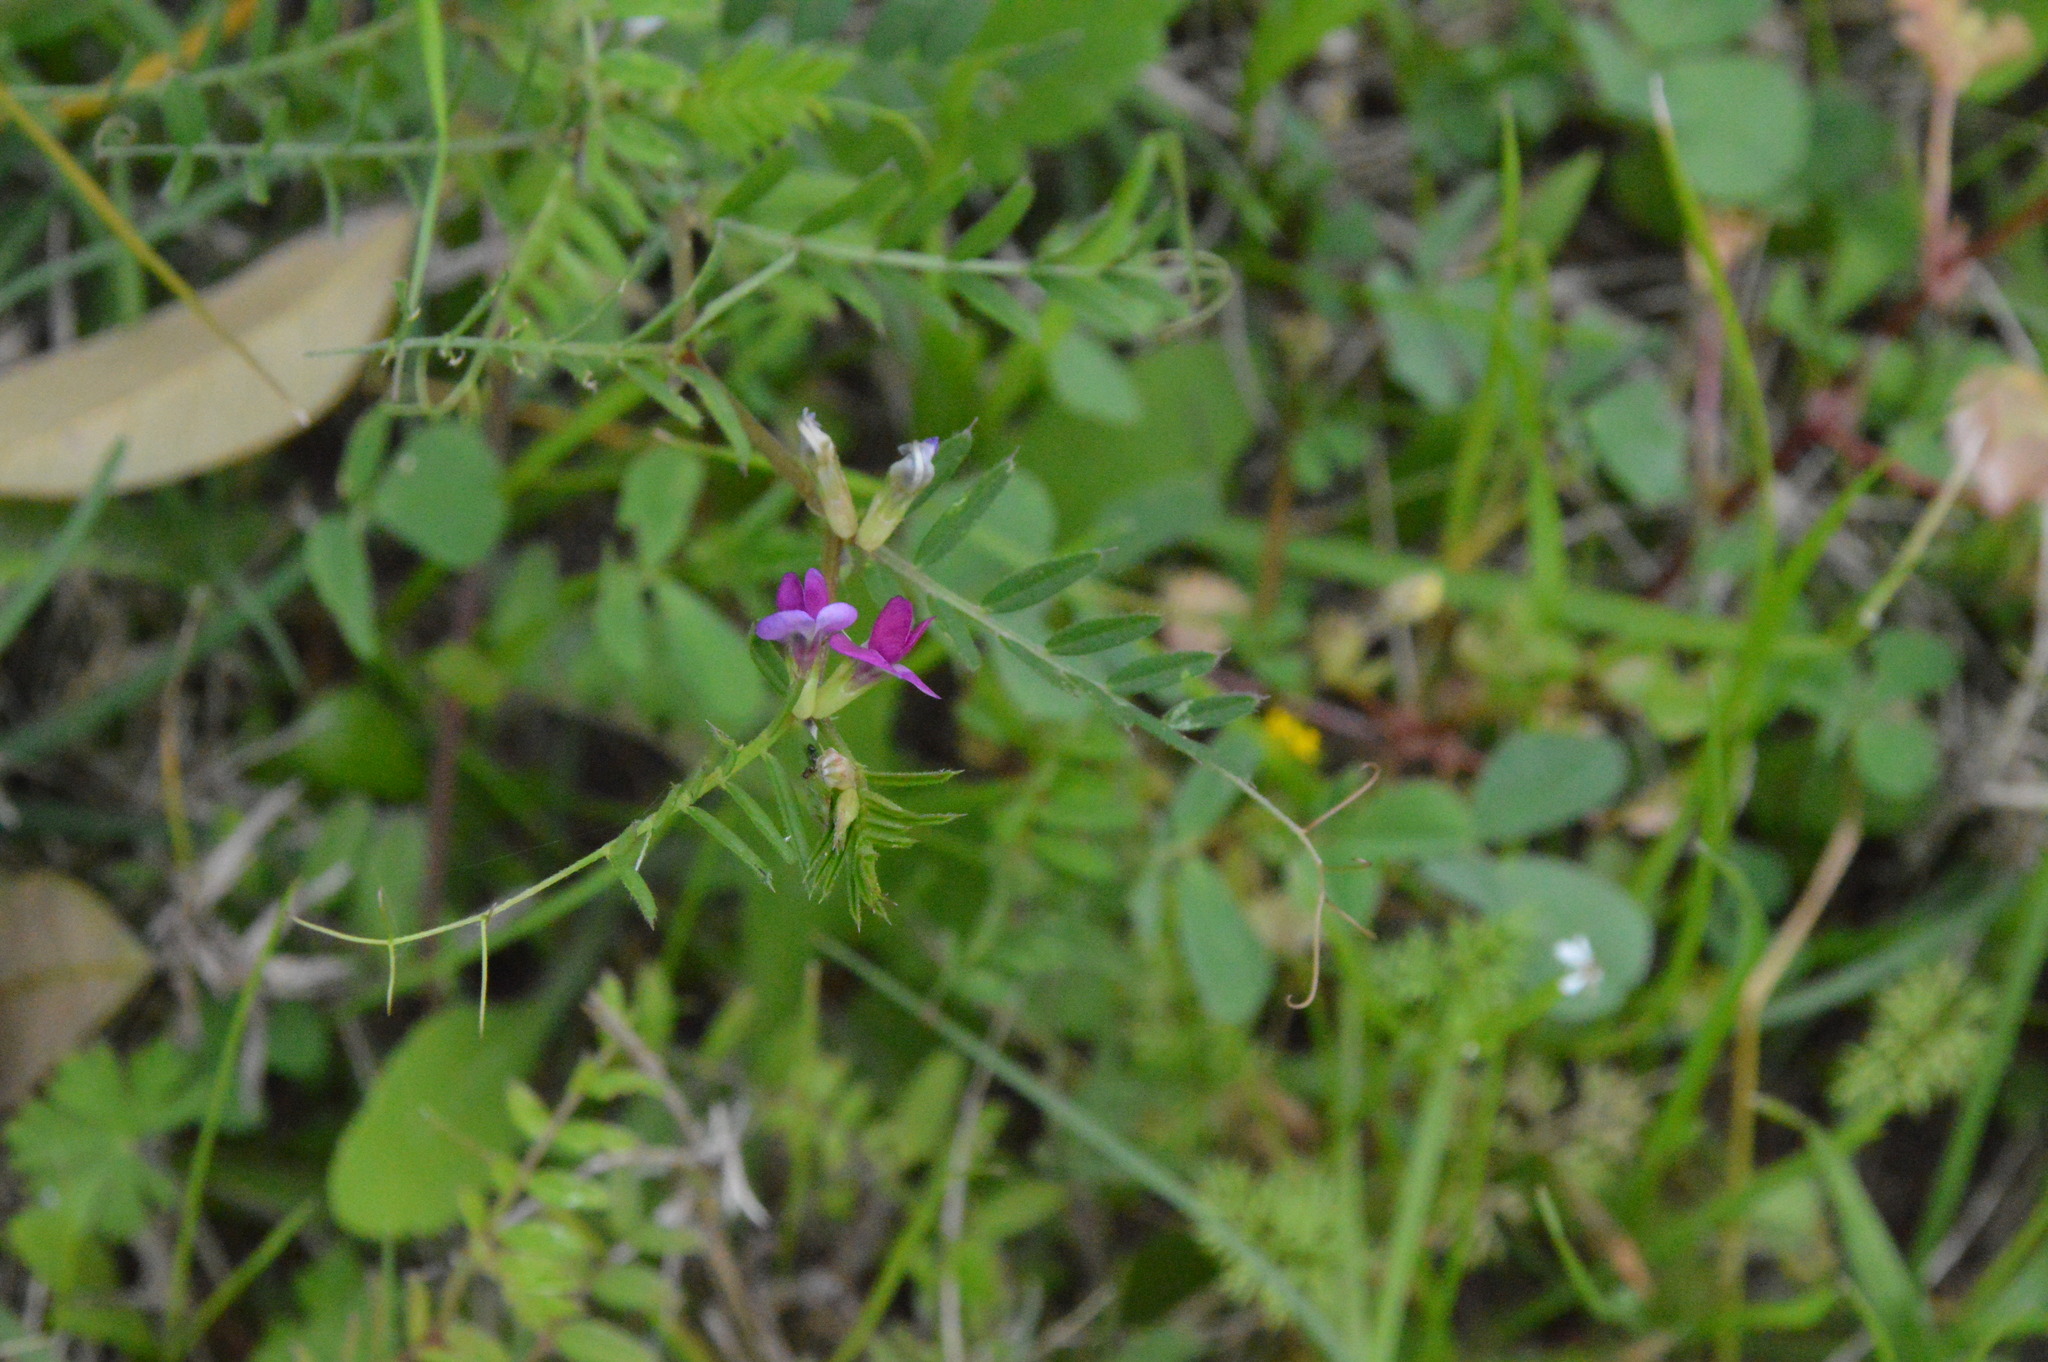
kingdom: Plantae
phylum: Tracheophyta
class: Magnoliopsida
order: Fabales
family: Fabaceae
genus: Vicia
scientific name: Vicia sativa
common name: Garden vetch
